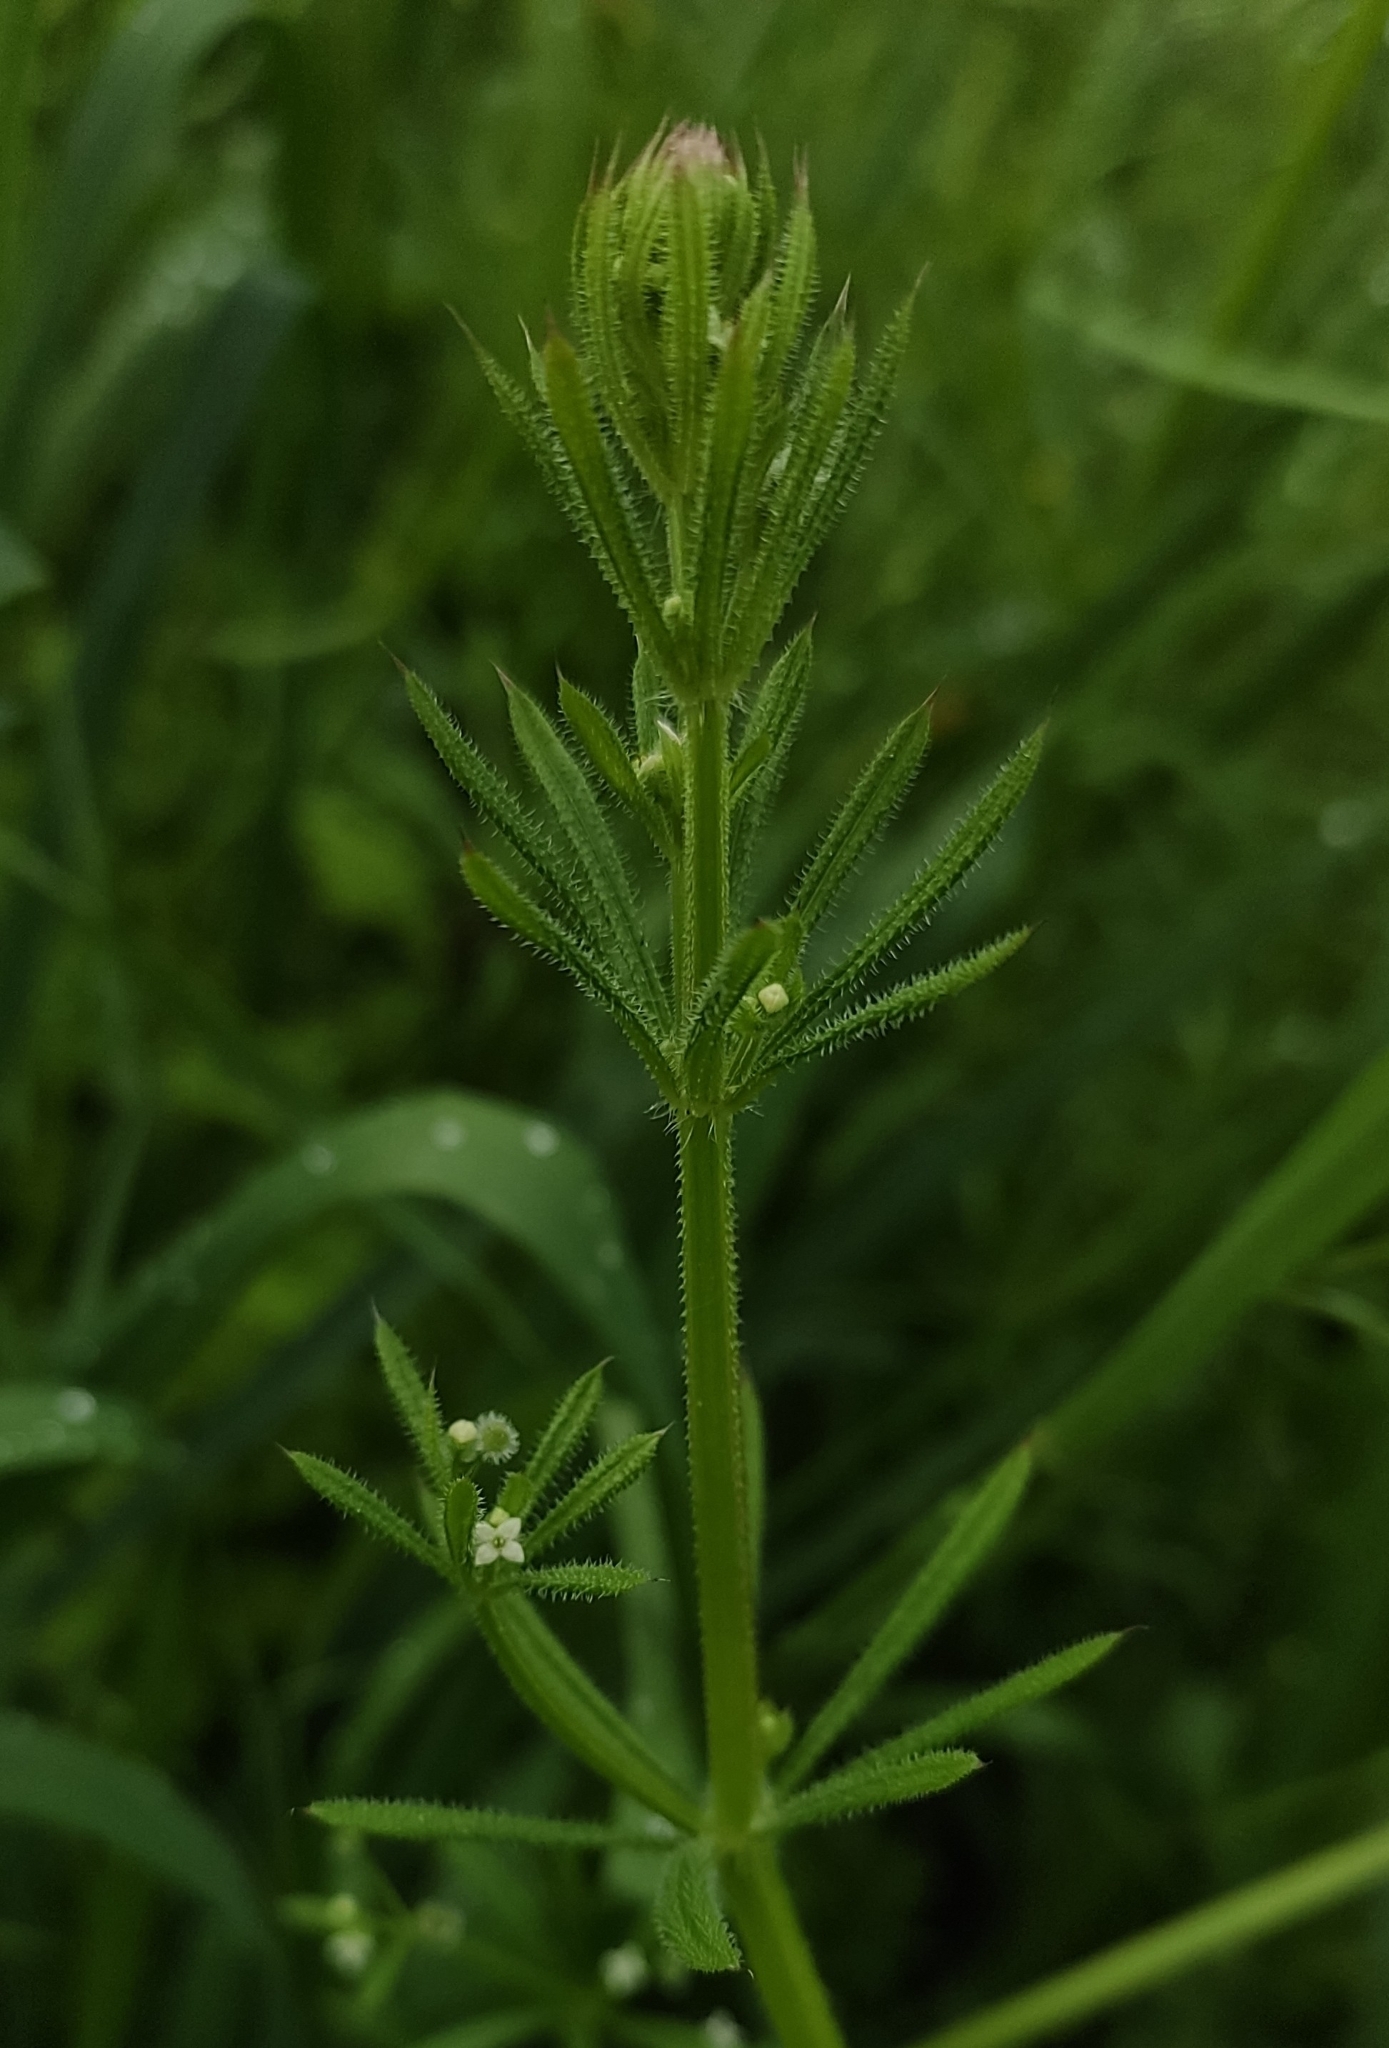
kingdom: Plantae
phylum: Tracheophyta
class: Magnoliopsida
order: Gentianales
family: Rubiaceae
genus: Galium
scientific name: Galium aparine
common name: Cleavers
